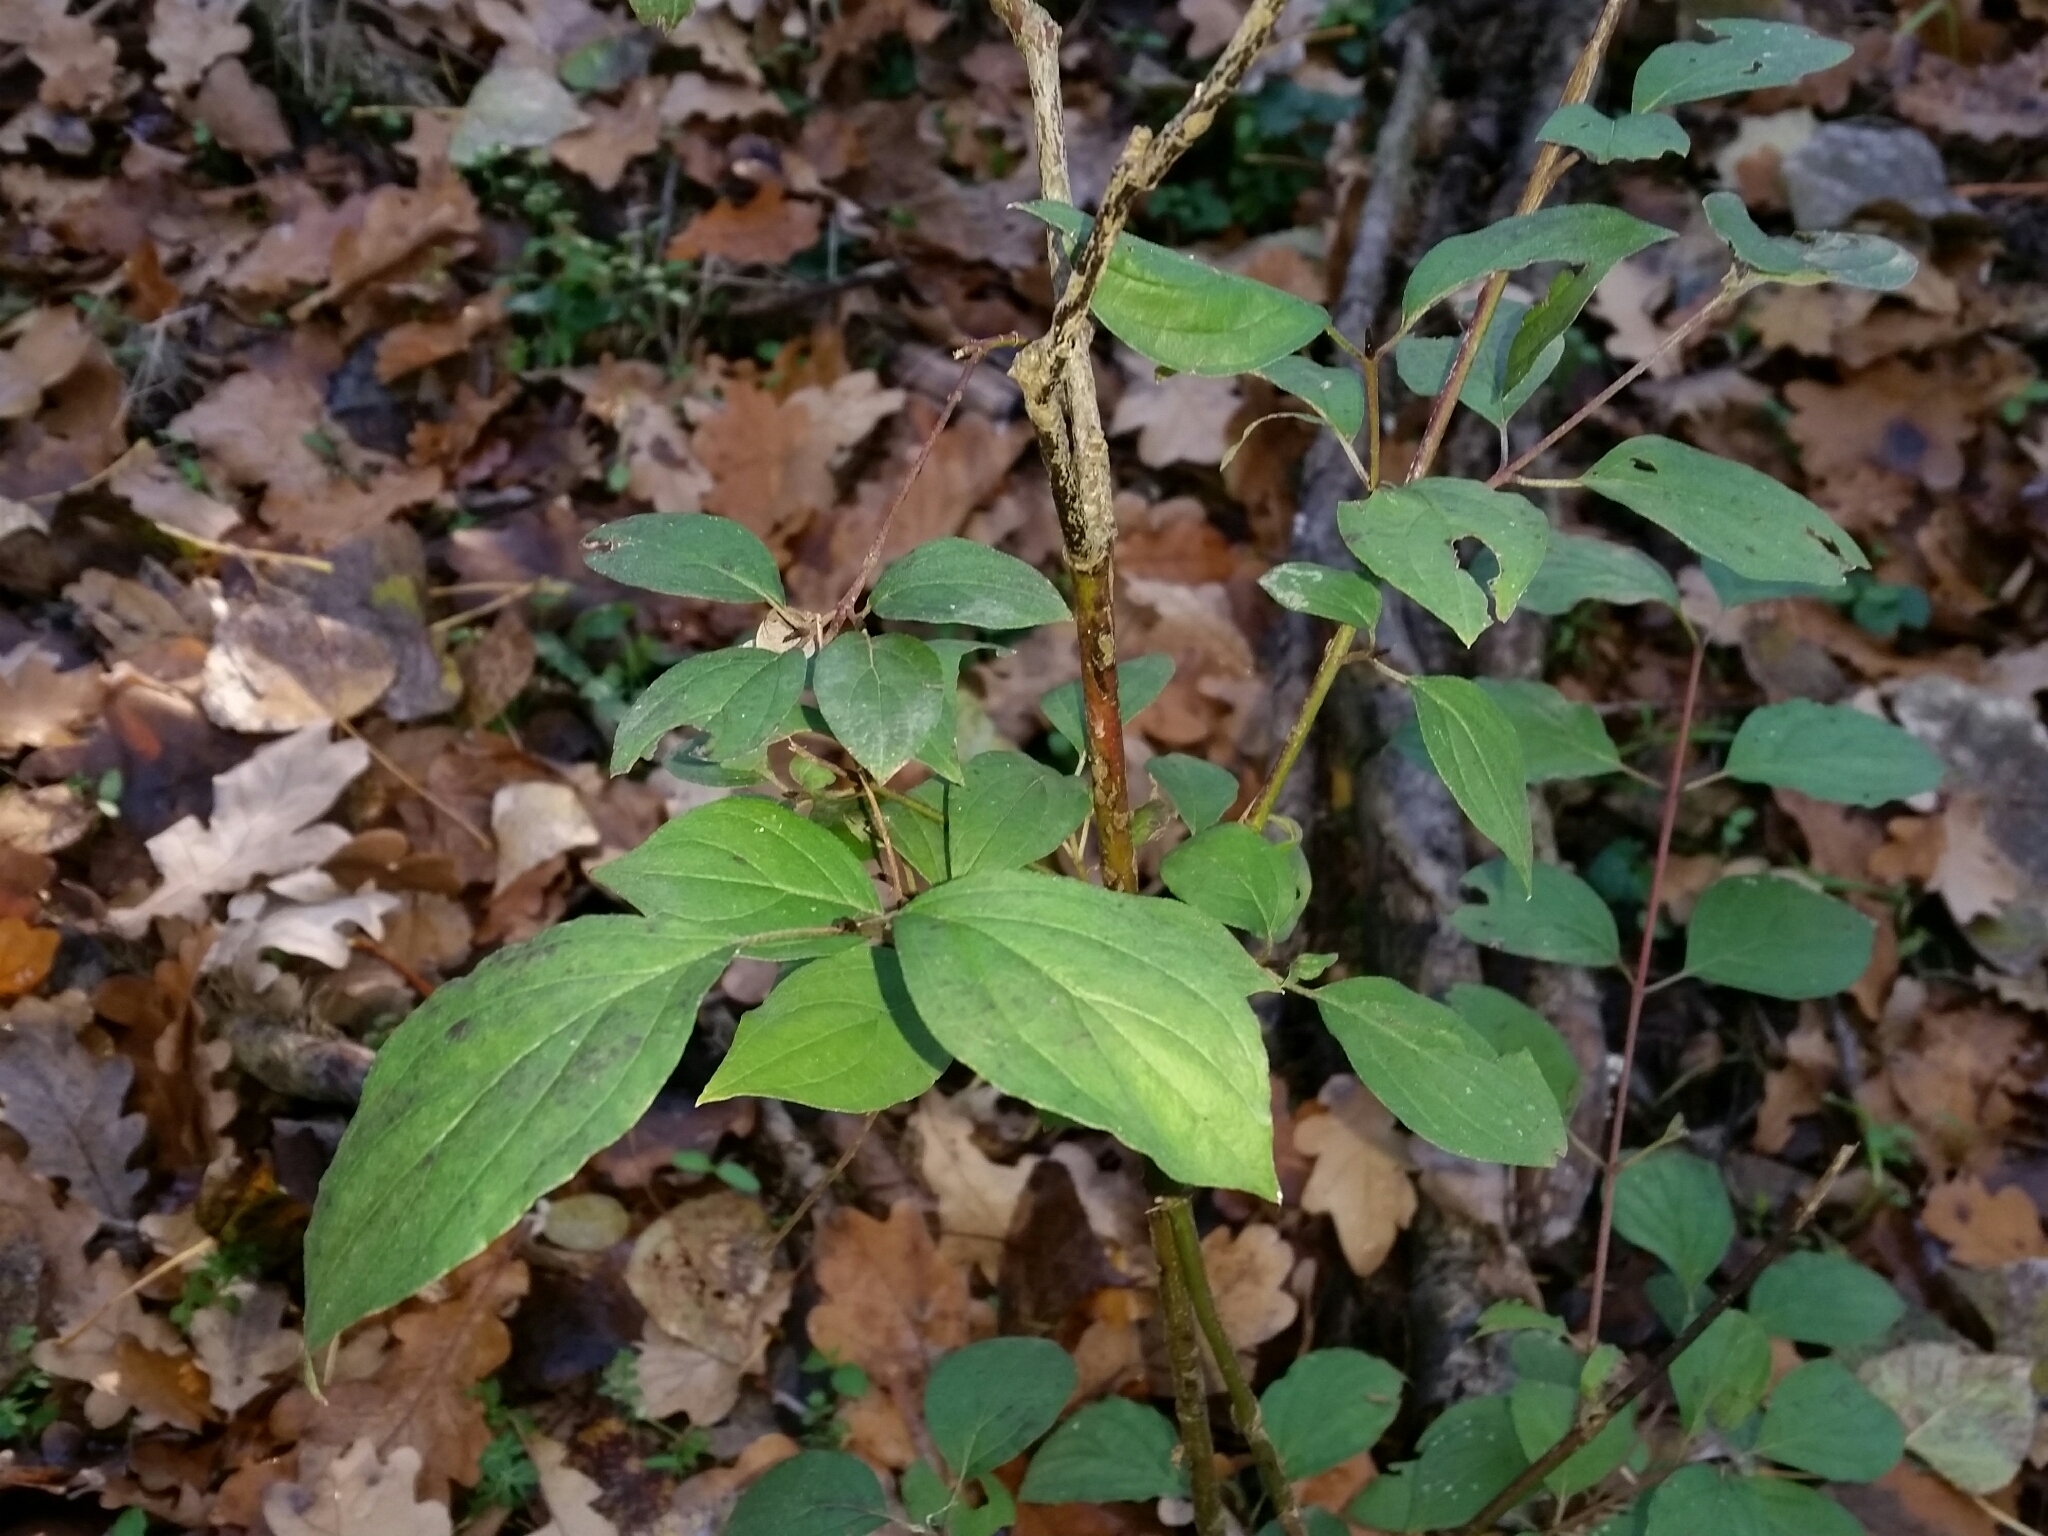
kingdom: Plantae
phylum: Tracheophyta
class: Magnoliopsida
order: Cornales
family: Cornaceae
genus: Cornus
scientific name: Cornus sanguinea
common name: Dogwood
